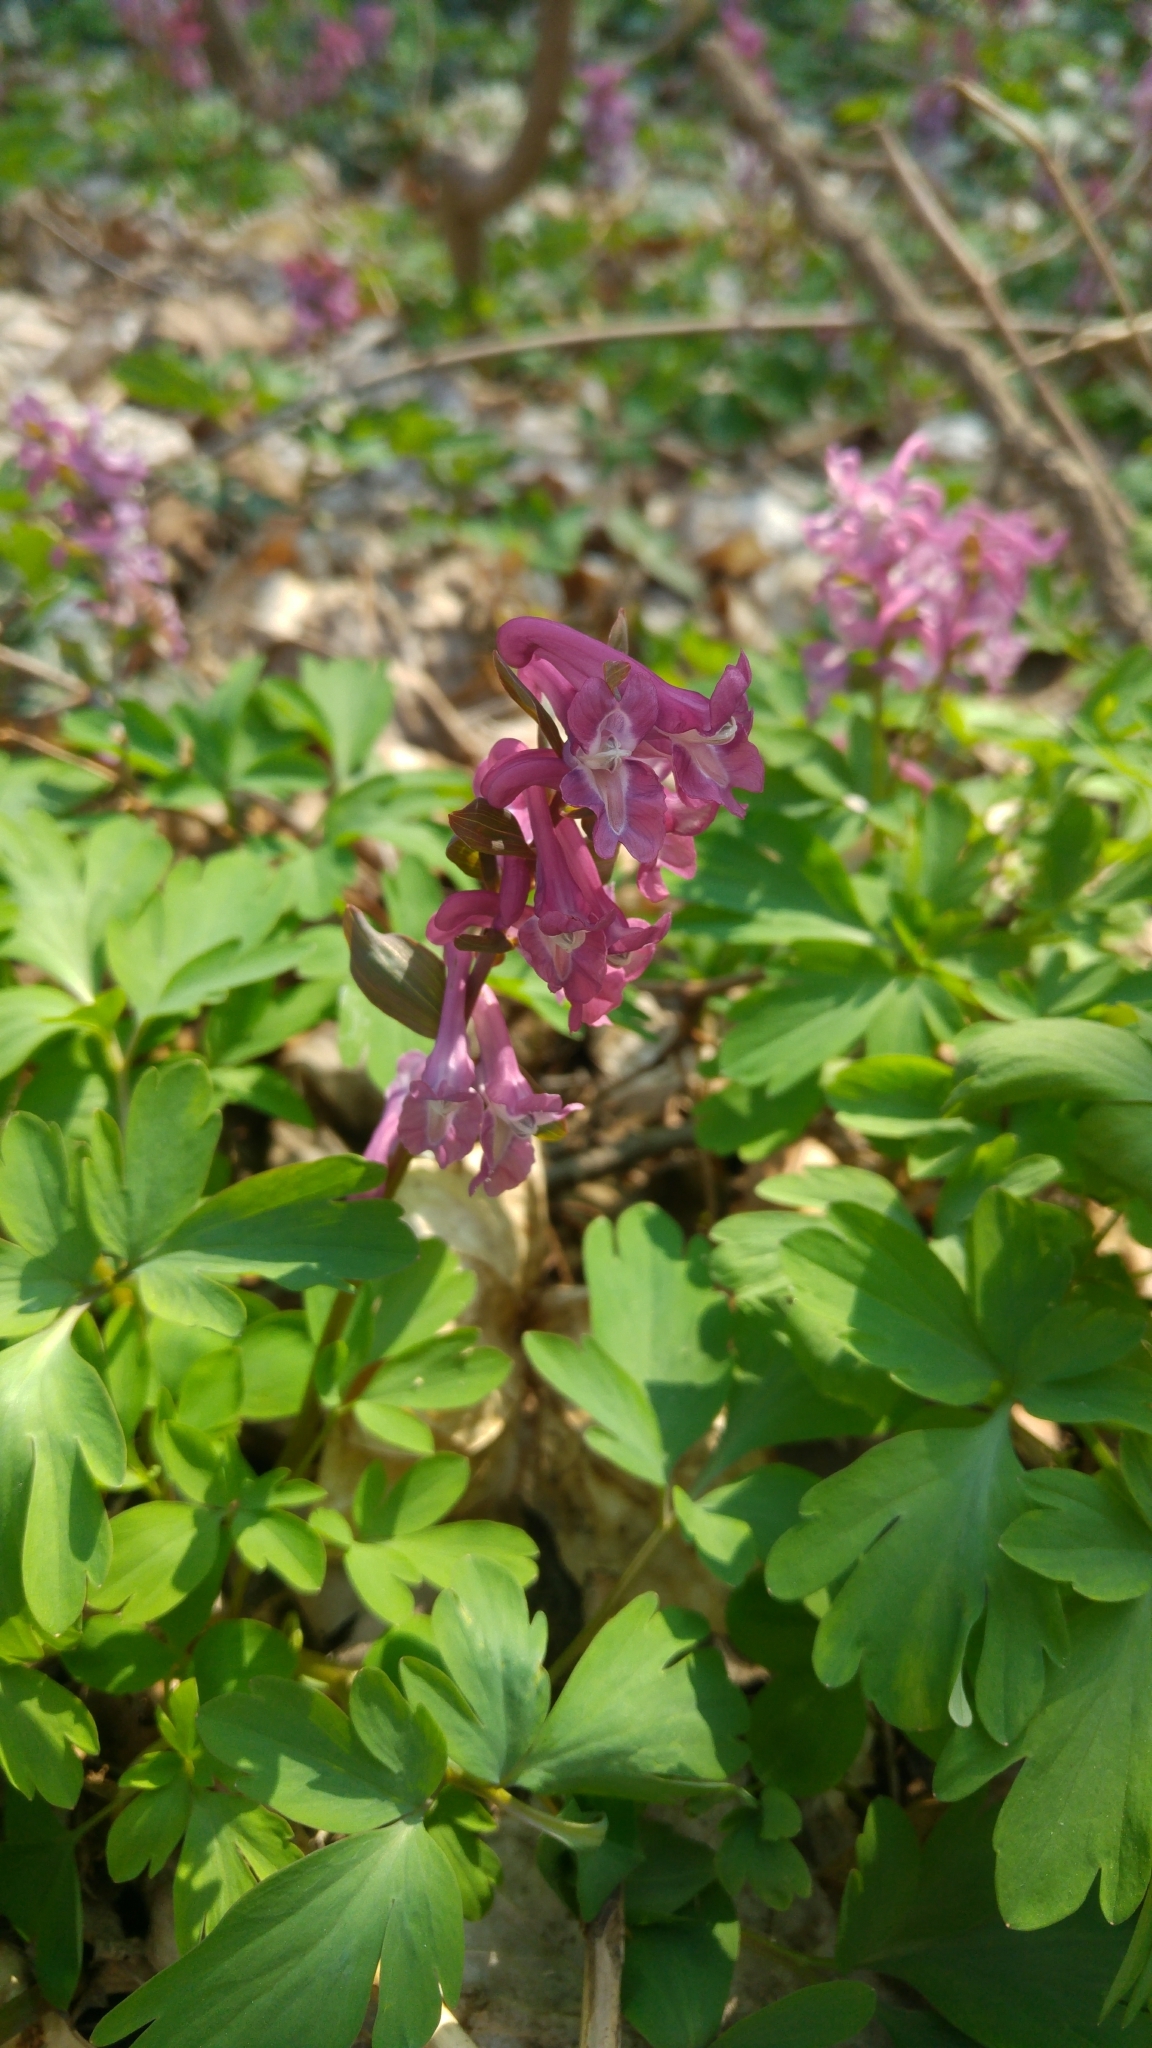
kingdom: Plantae
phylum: Tracheophyta
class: Magnoliopsida
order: Ranunculales
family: Papaveraceae
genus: Corydalis
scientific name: Corydalis cava
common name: Hollowroot
